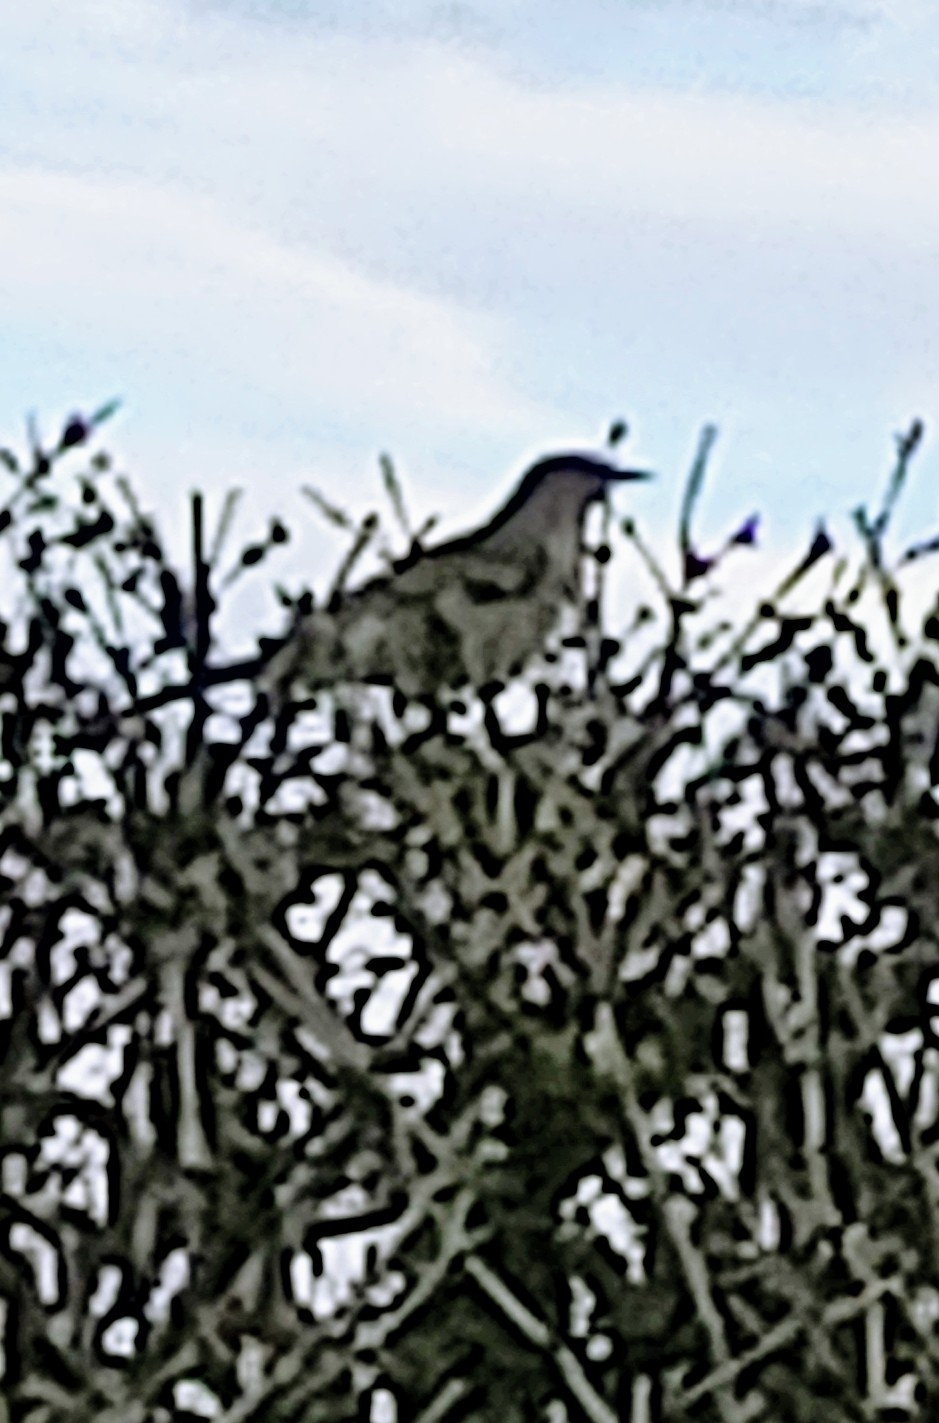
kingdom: Animalia
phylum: Chordata
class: Aves
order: Passeriformes
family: Mimidae
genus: Mimus
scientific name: Mimus polyglottos
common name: Northern mockingbird
